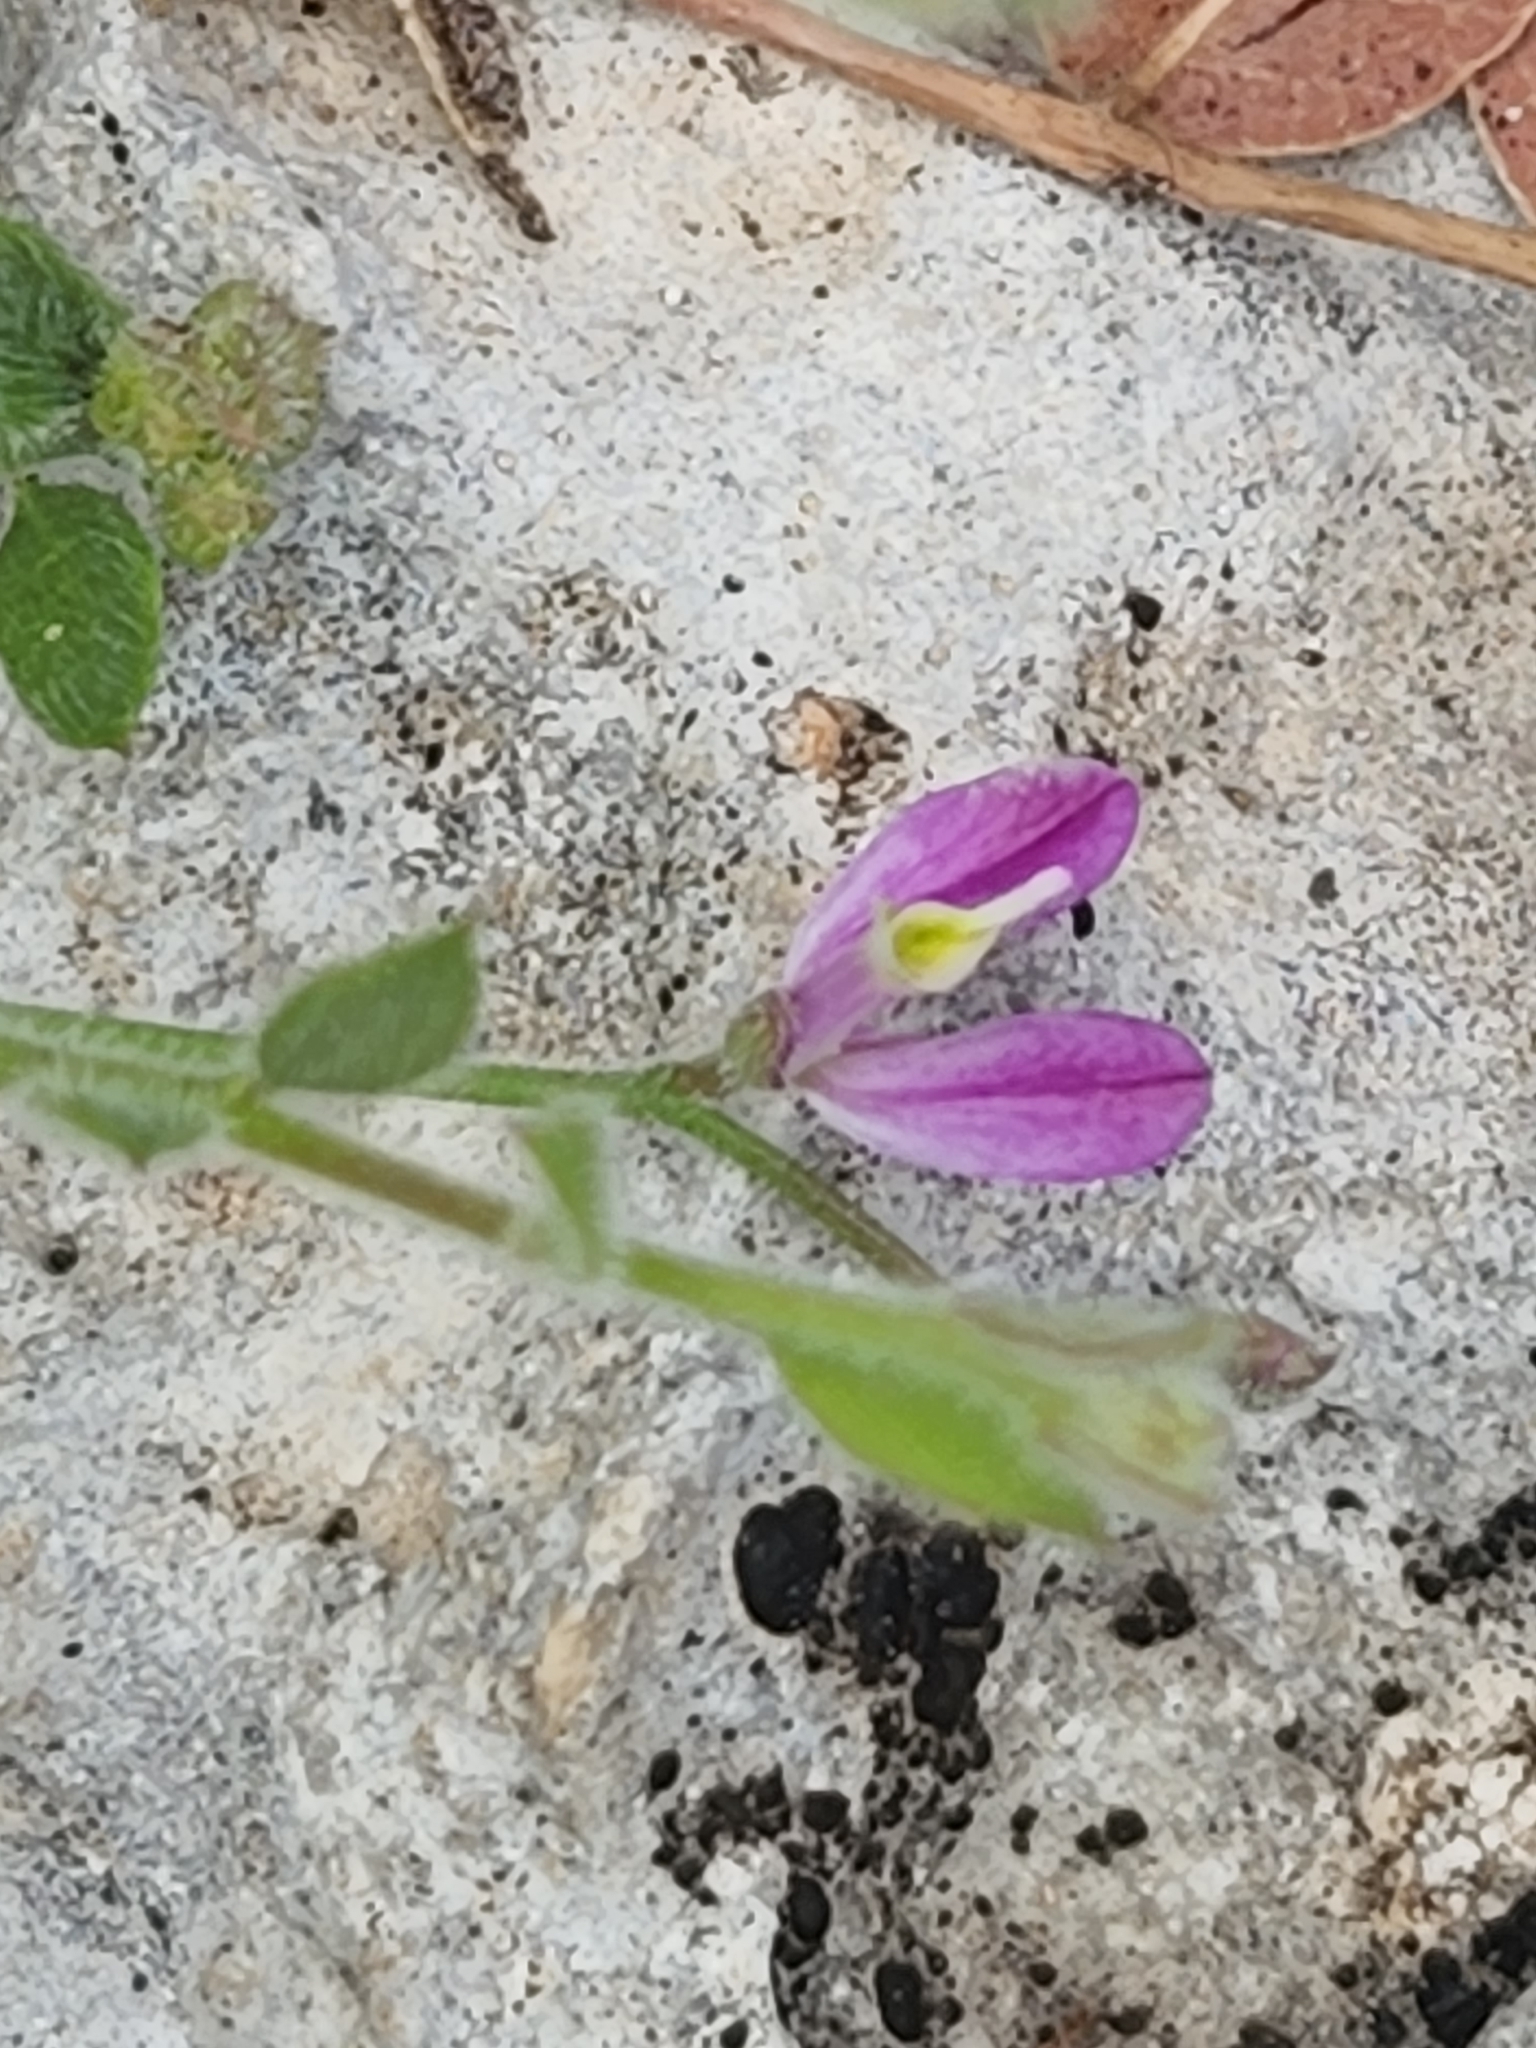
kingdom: Plantae
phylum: Tracheophyta
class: Magnoliopsida
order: Fabales
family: Polygalaceae
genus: Rhinotropis
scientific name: Rhinotropis lindheimeri
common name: Shrubby milkwort
